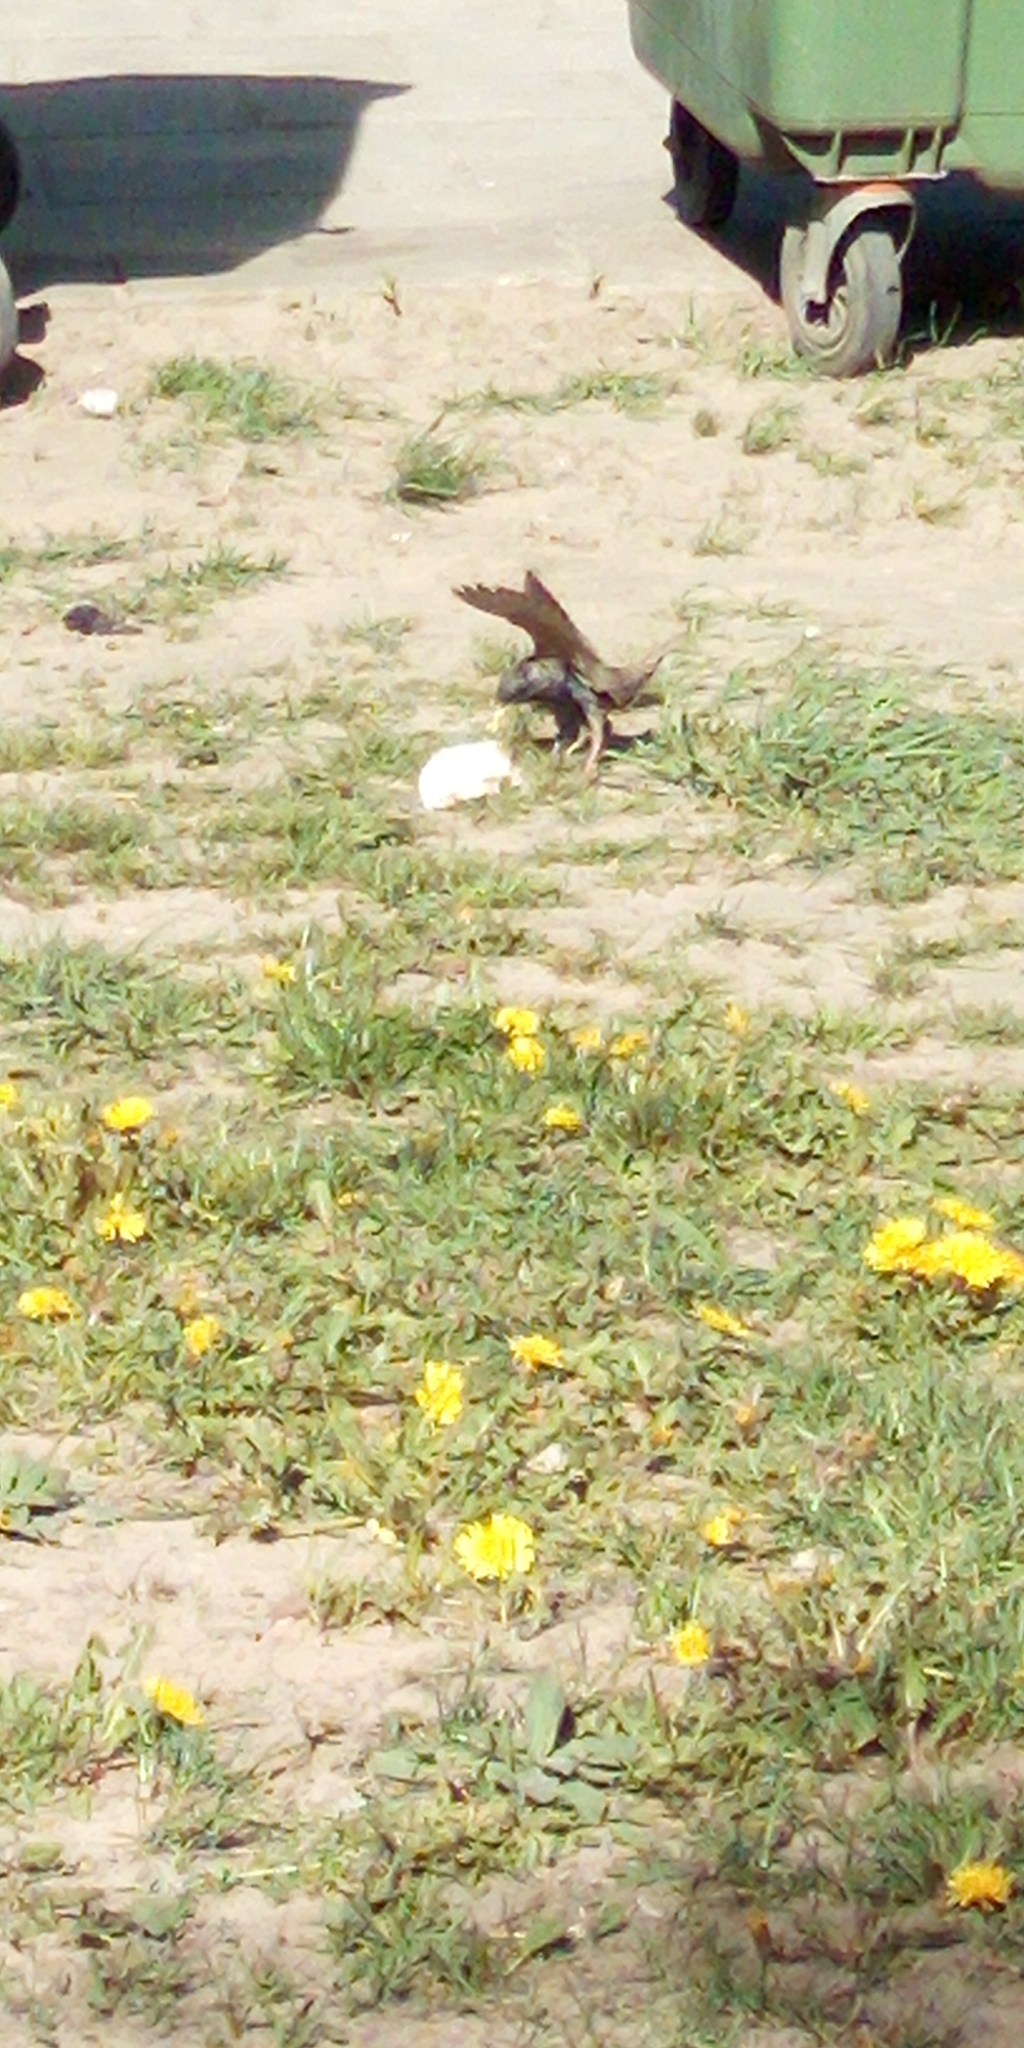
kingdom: Animalia
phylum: Chordata
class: Aves
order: Passeriformes
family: Sturnidae
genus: Sturnus
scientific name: Sturnus vulgaris
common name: Common starling
